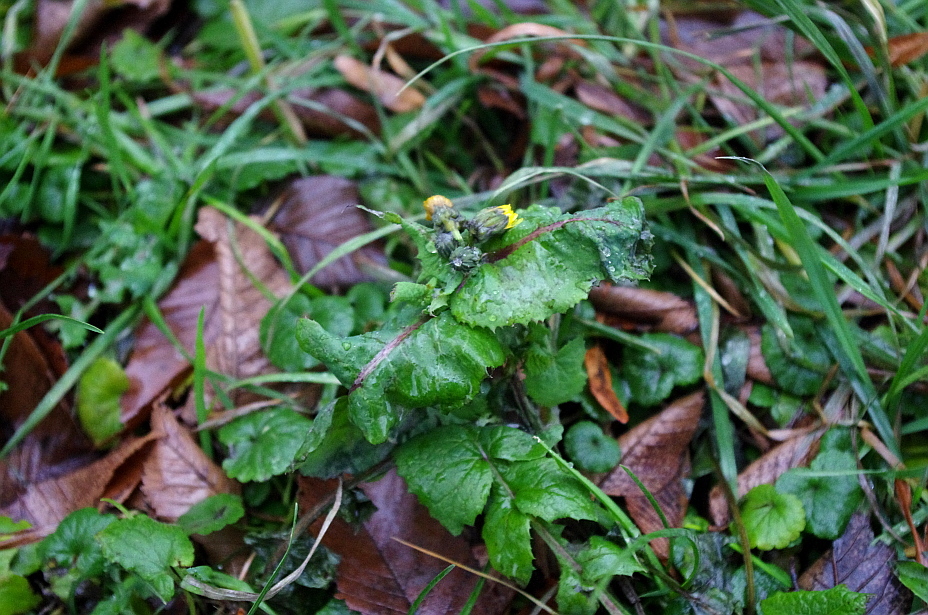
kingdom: Plantae
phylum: Tracheophyta
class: Magnoliopsida
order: Asterales
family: Asteraceae
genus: Sonchus
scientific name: Sonchus oleraceus
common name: Common sowthistle
